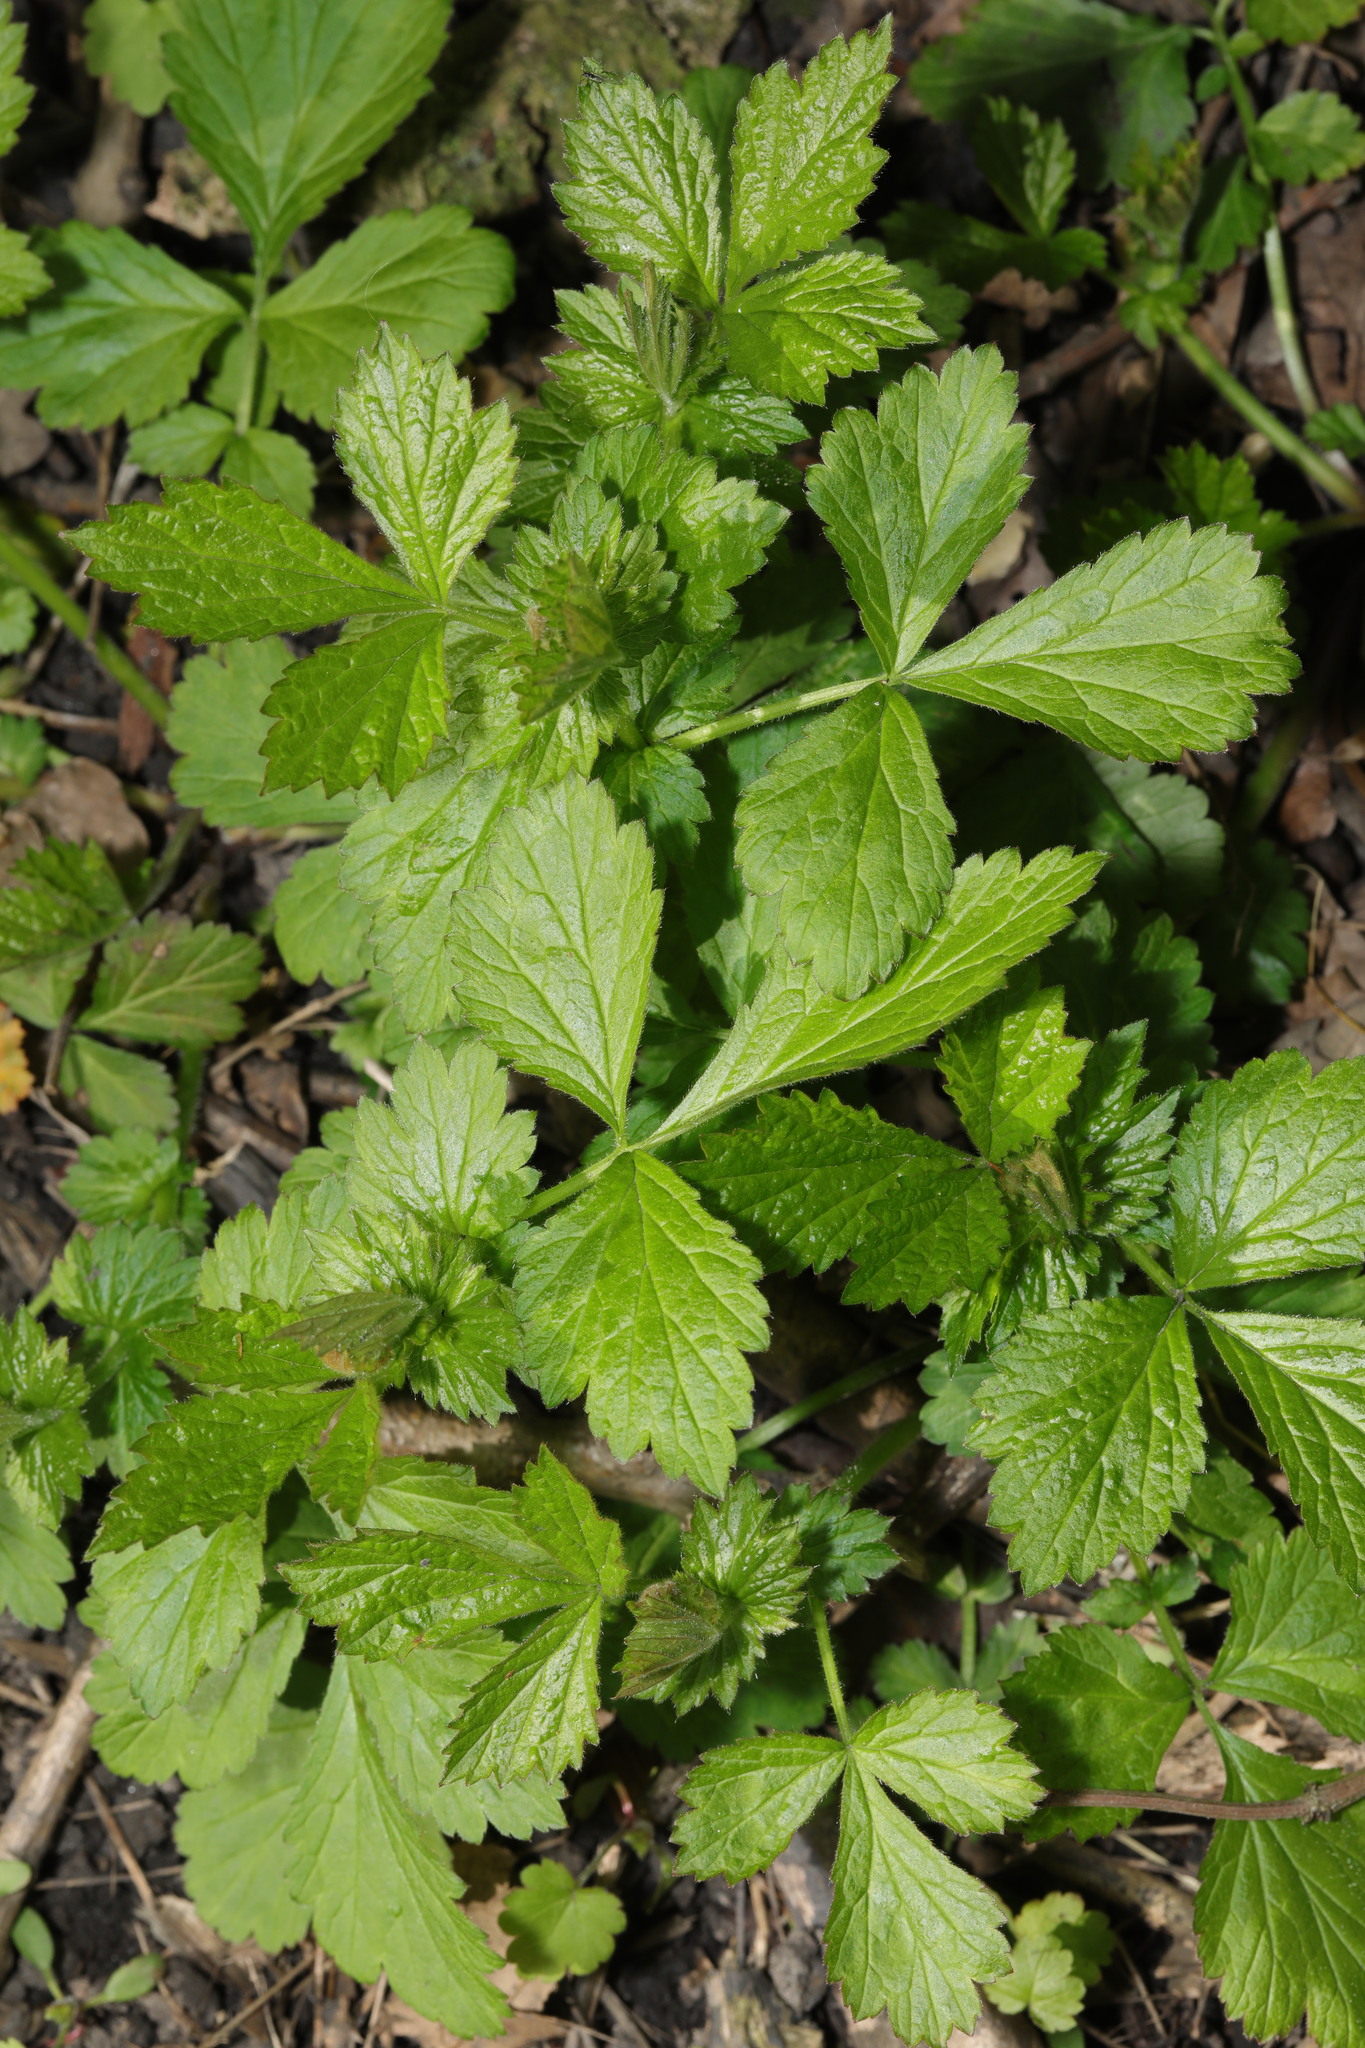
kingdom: Plantae
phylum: Tracheophyta
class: Magnoliopsida
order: Rosales
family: Rosaceae
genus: Geum
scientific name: Geum urbanum
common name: Wood avens
